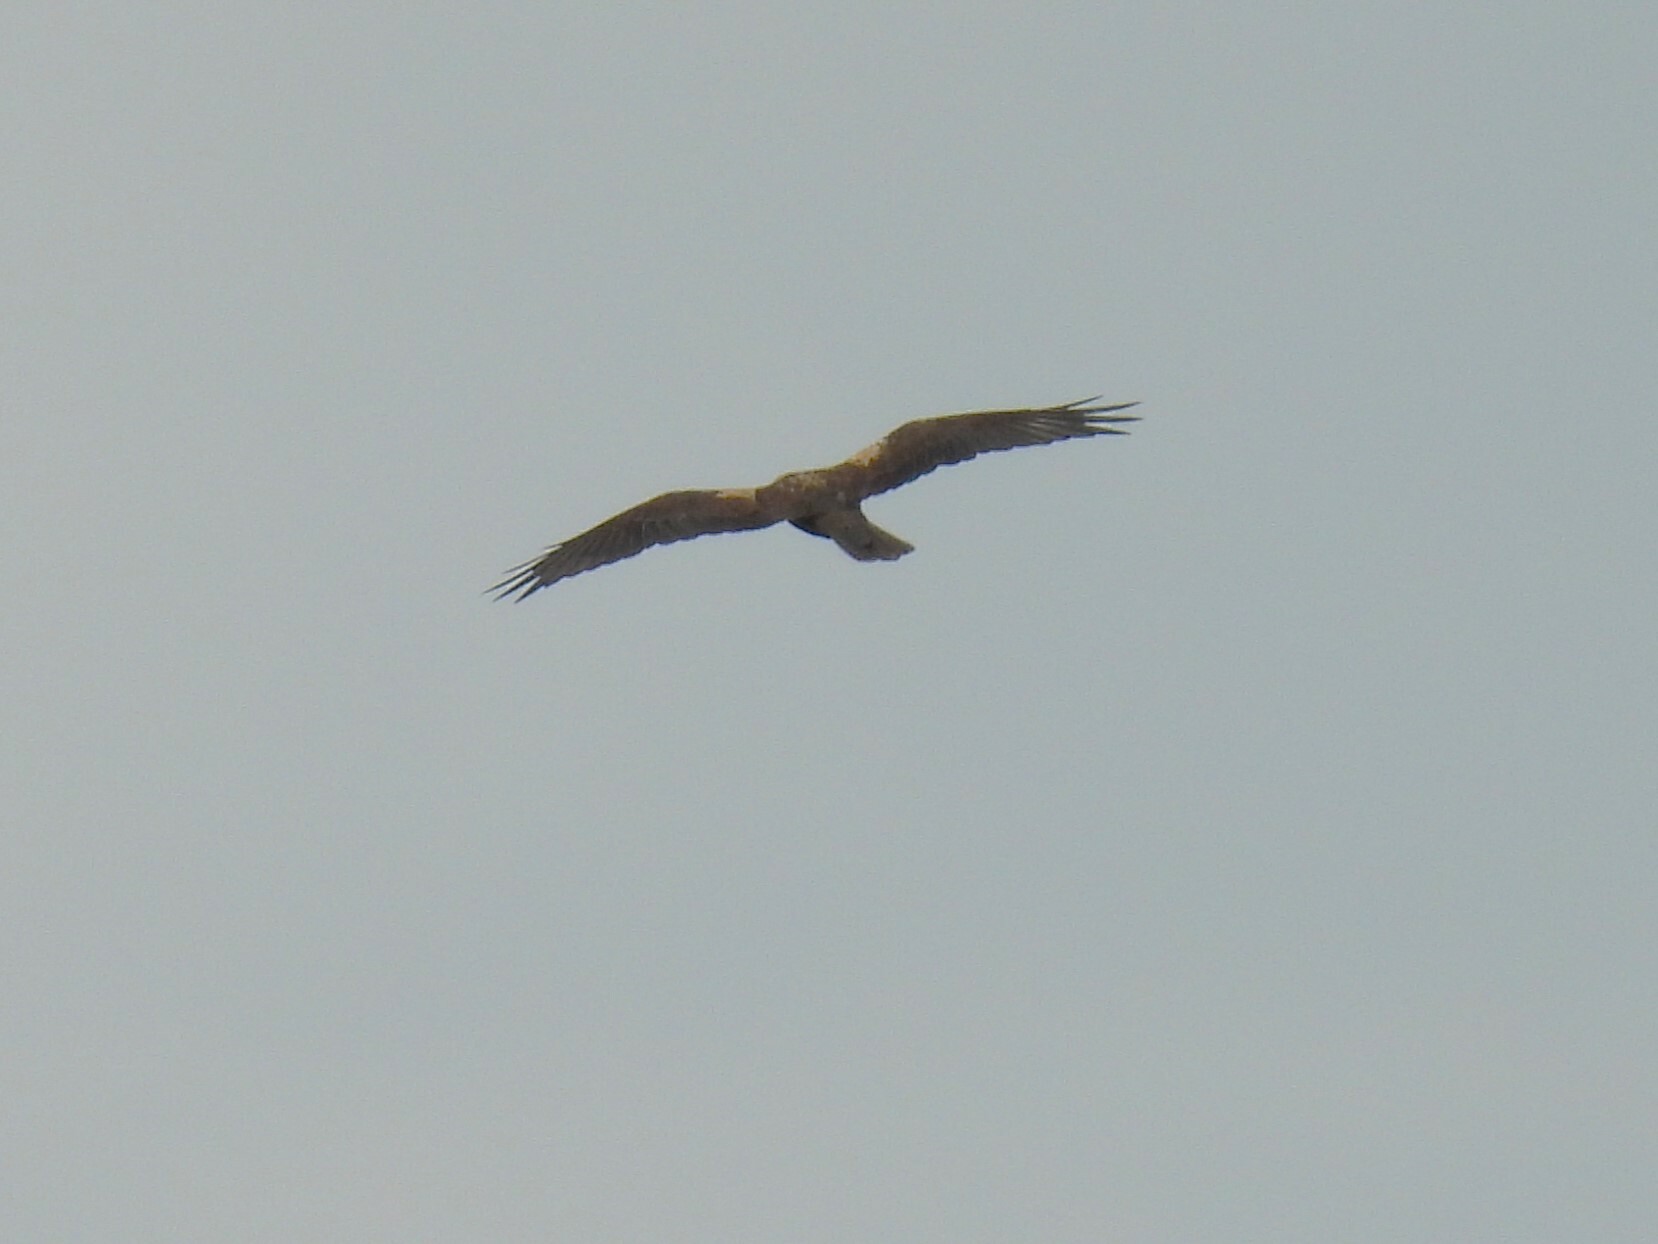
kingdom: Animalia
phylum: Chordata
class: Aves
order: Accipitriformes
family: Accipitridae
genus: Circus
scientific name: Circus aeruginosus
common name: Western marsh harrier
